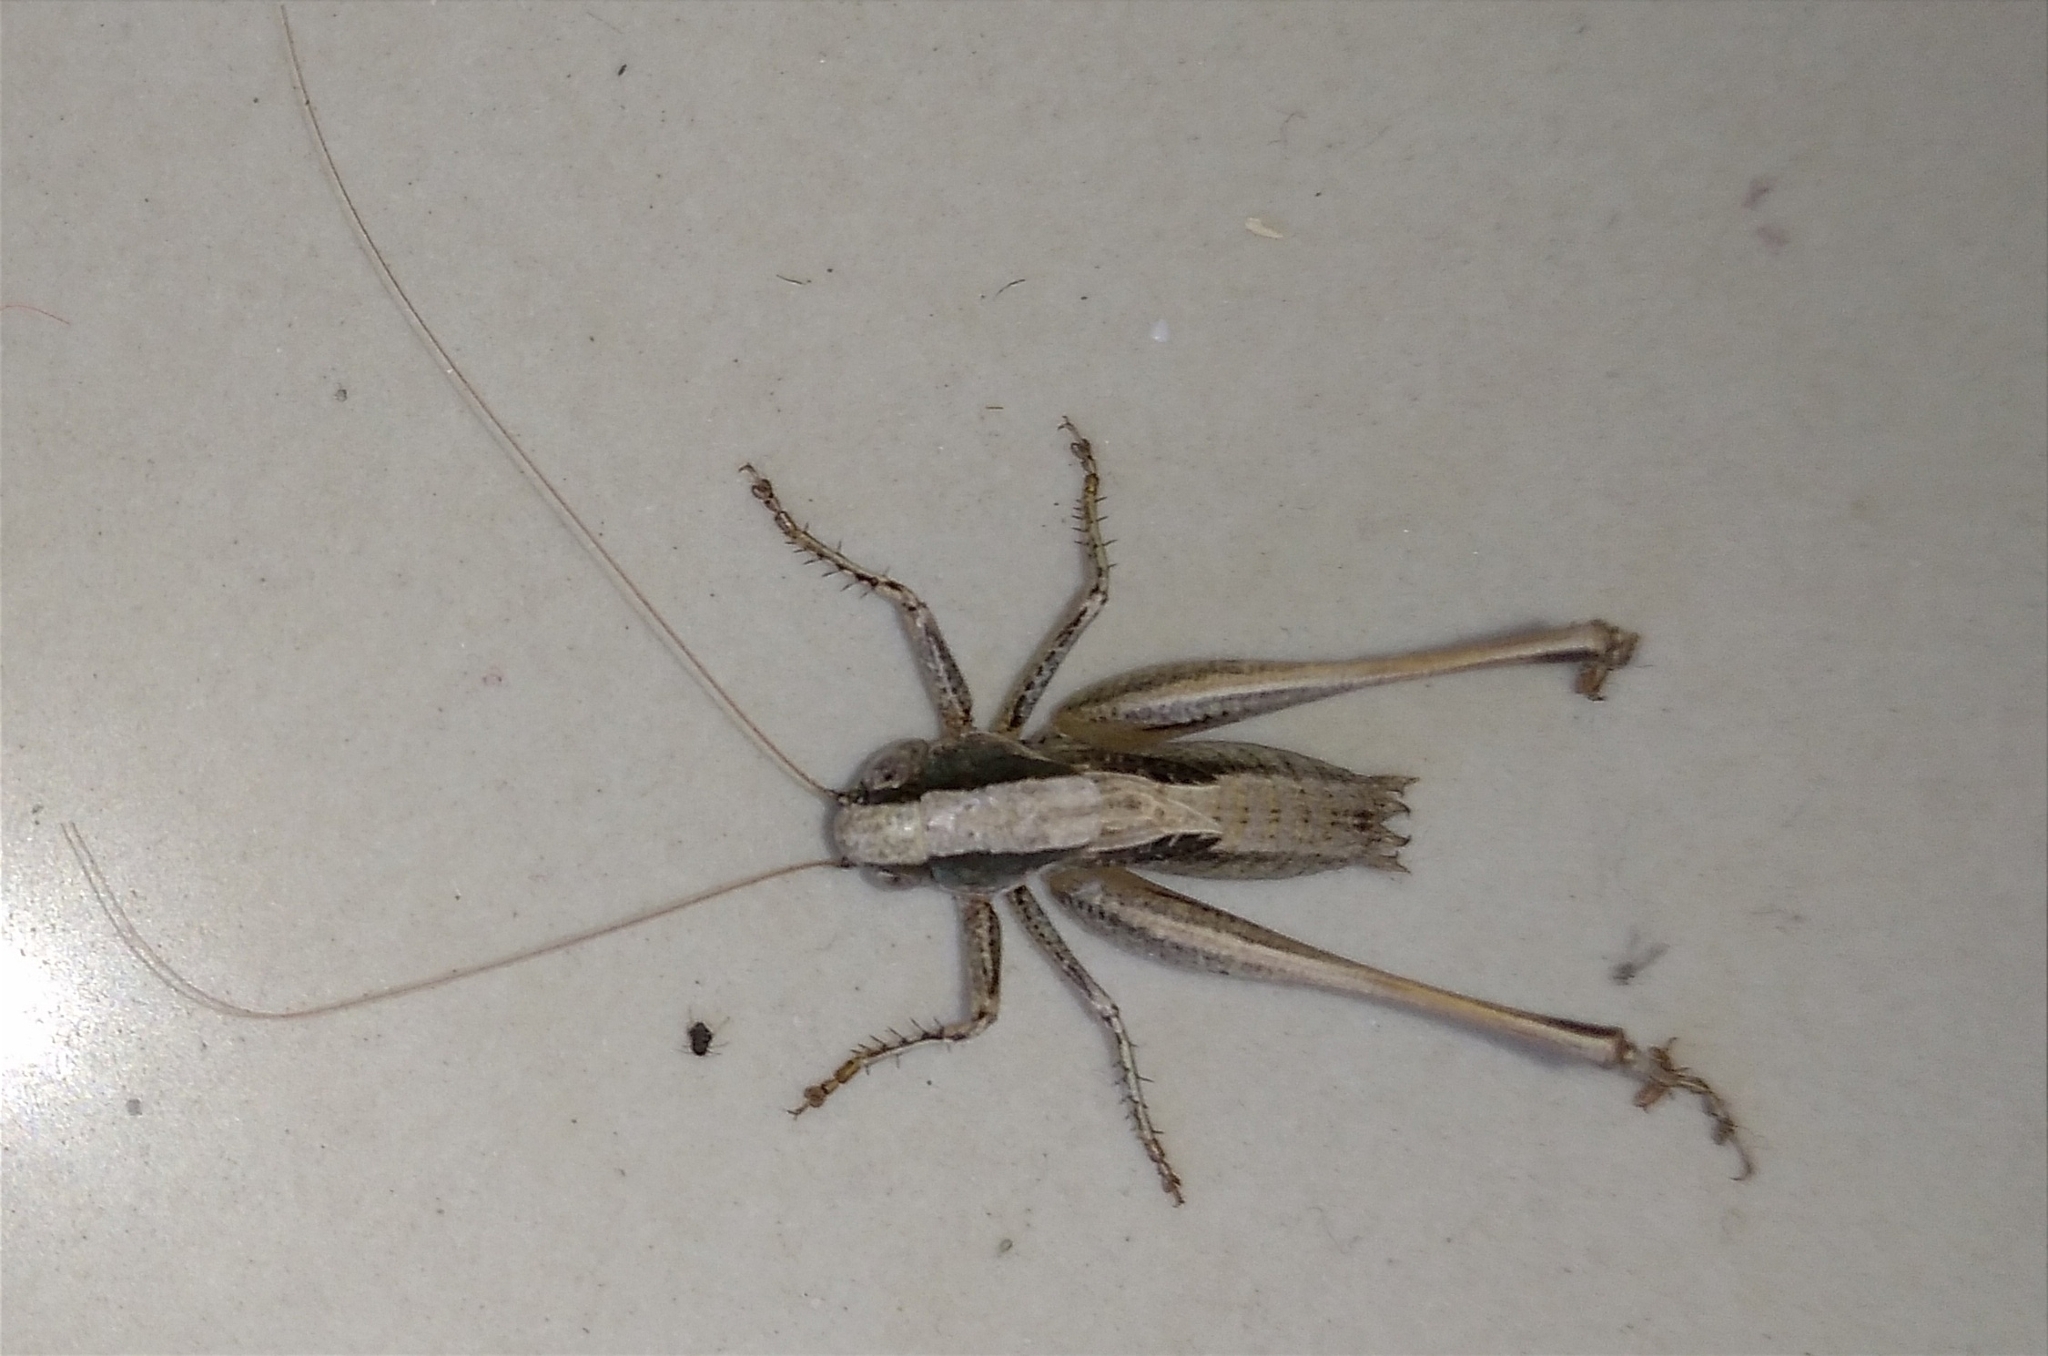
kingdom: Animalia
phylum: Arthropoda
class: Insecta
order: Orthoptera
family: Tettigoniidae
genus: Incertana
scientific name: Incertana incerta
